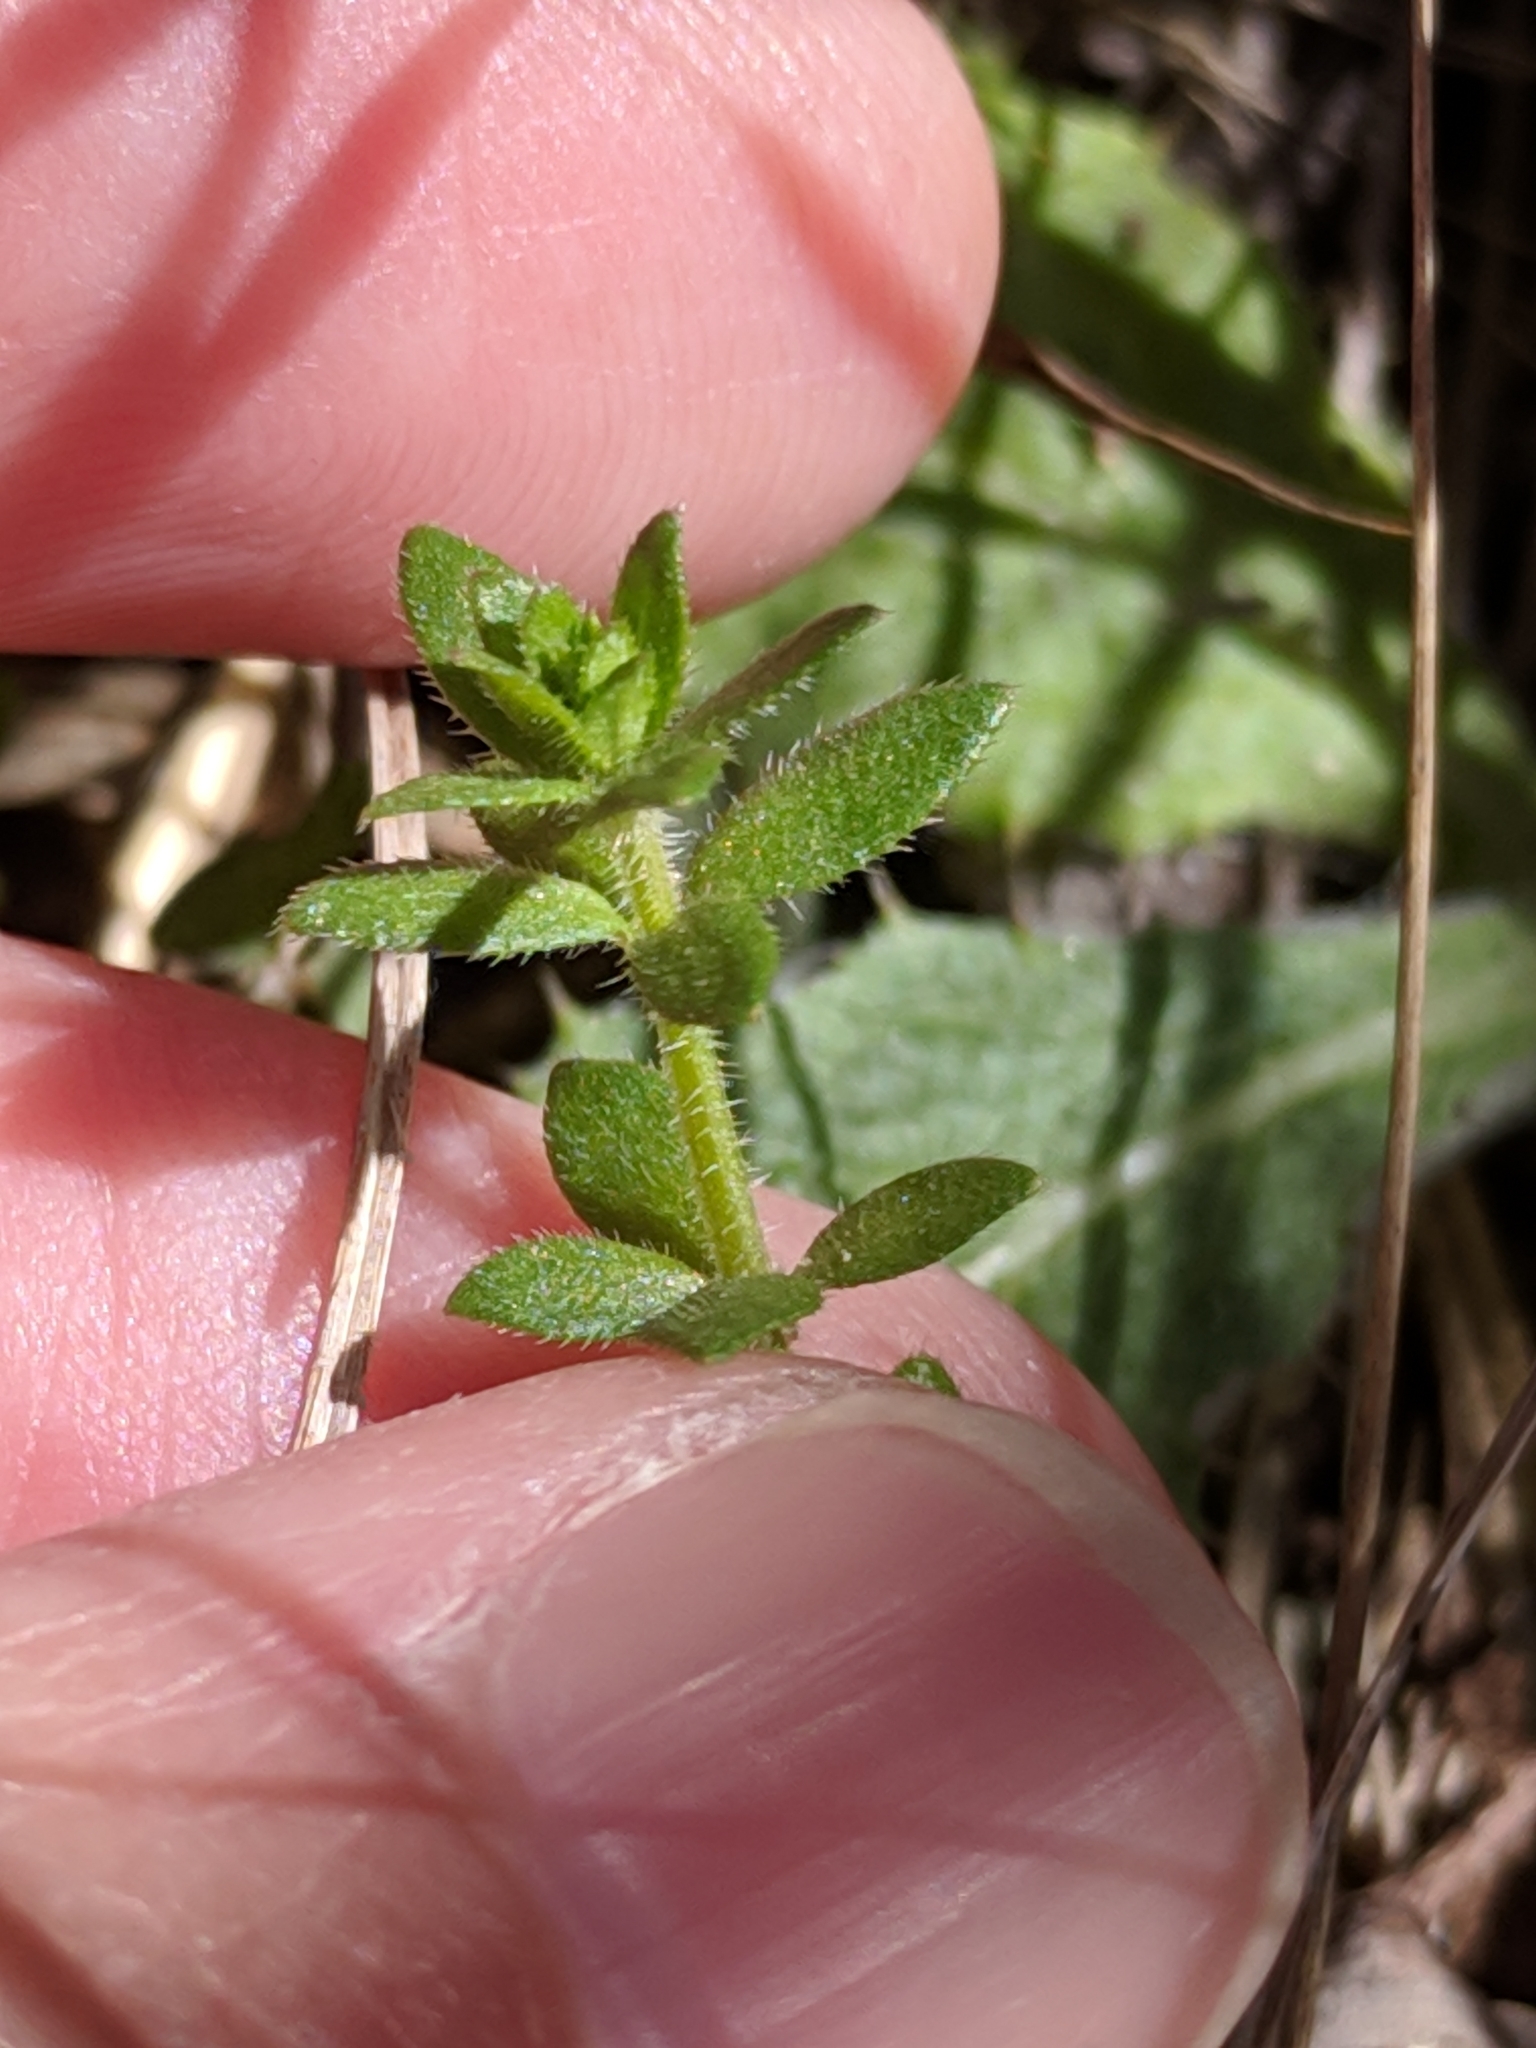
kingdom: Plantae
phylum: Tracheophyta
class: Magnoliopsida
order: Gentianales
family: Rubiaceae
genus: Galium
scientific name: Galium texense
